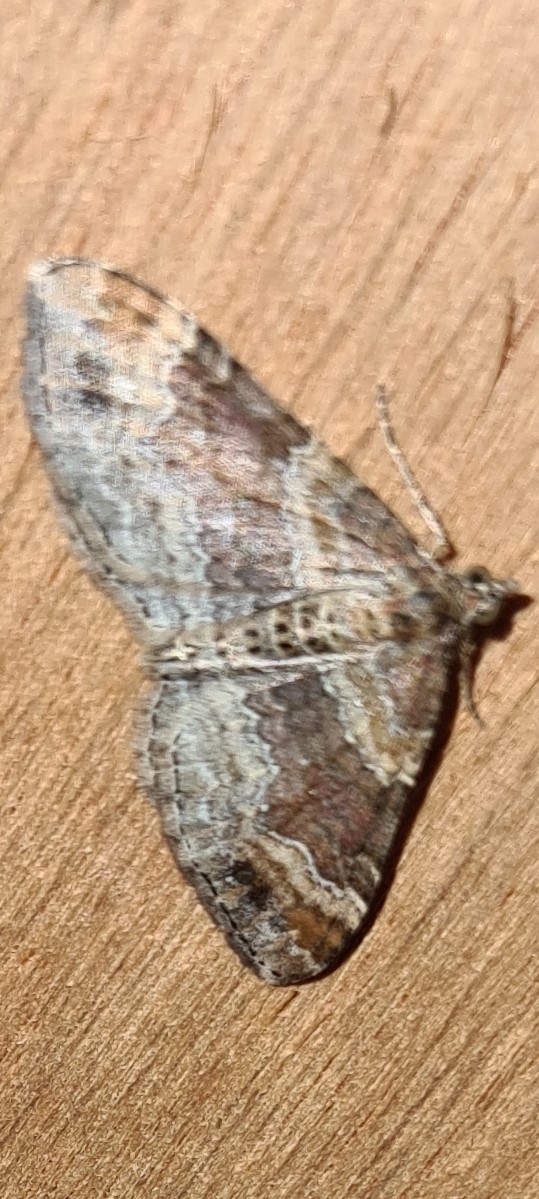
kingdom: Animalia
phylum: Arthropoda
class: Insecta
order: Lepidoptera
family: Geometridae
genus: Xanthorhoe
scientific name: Xanthorhoe spadicearia
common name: Red twin-spot carpet
